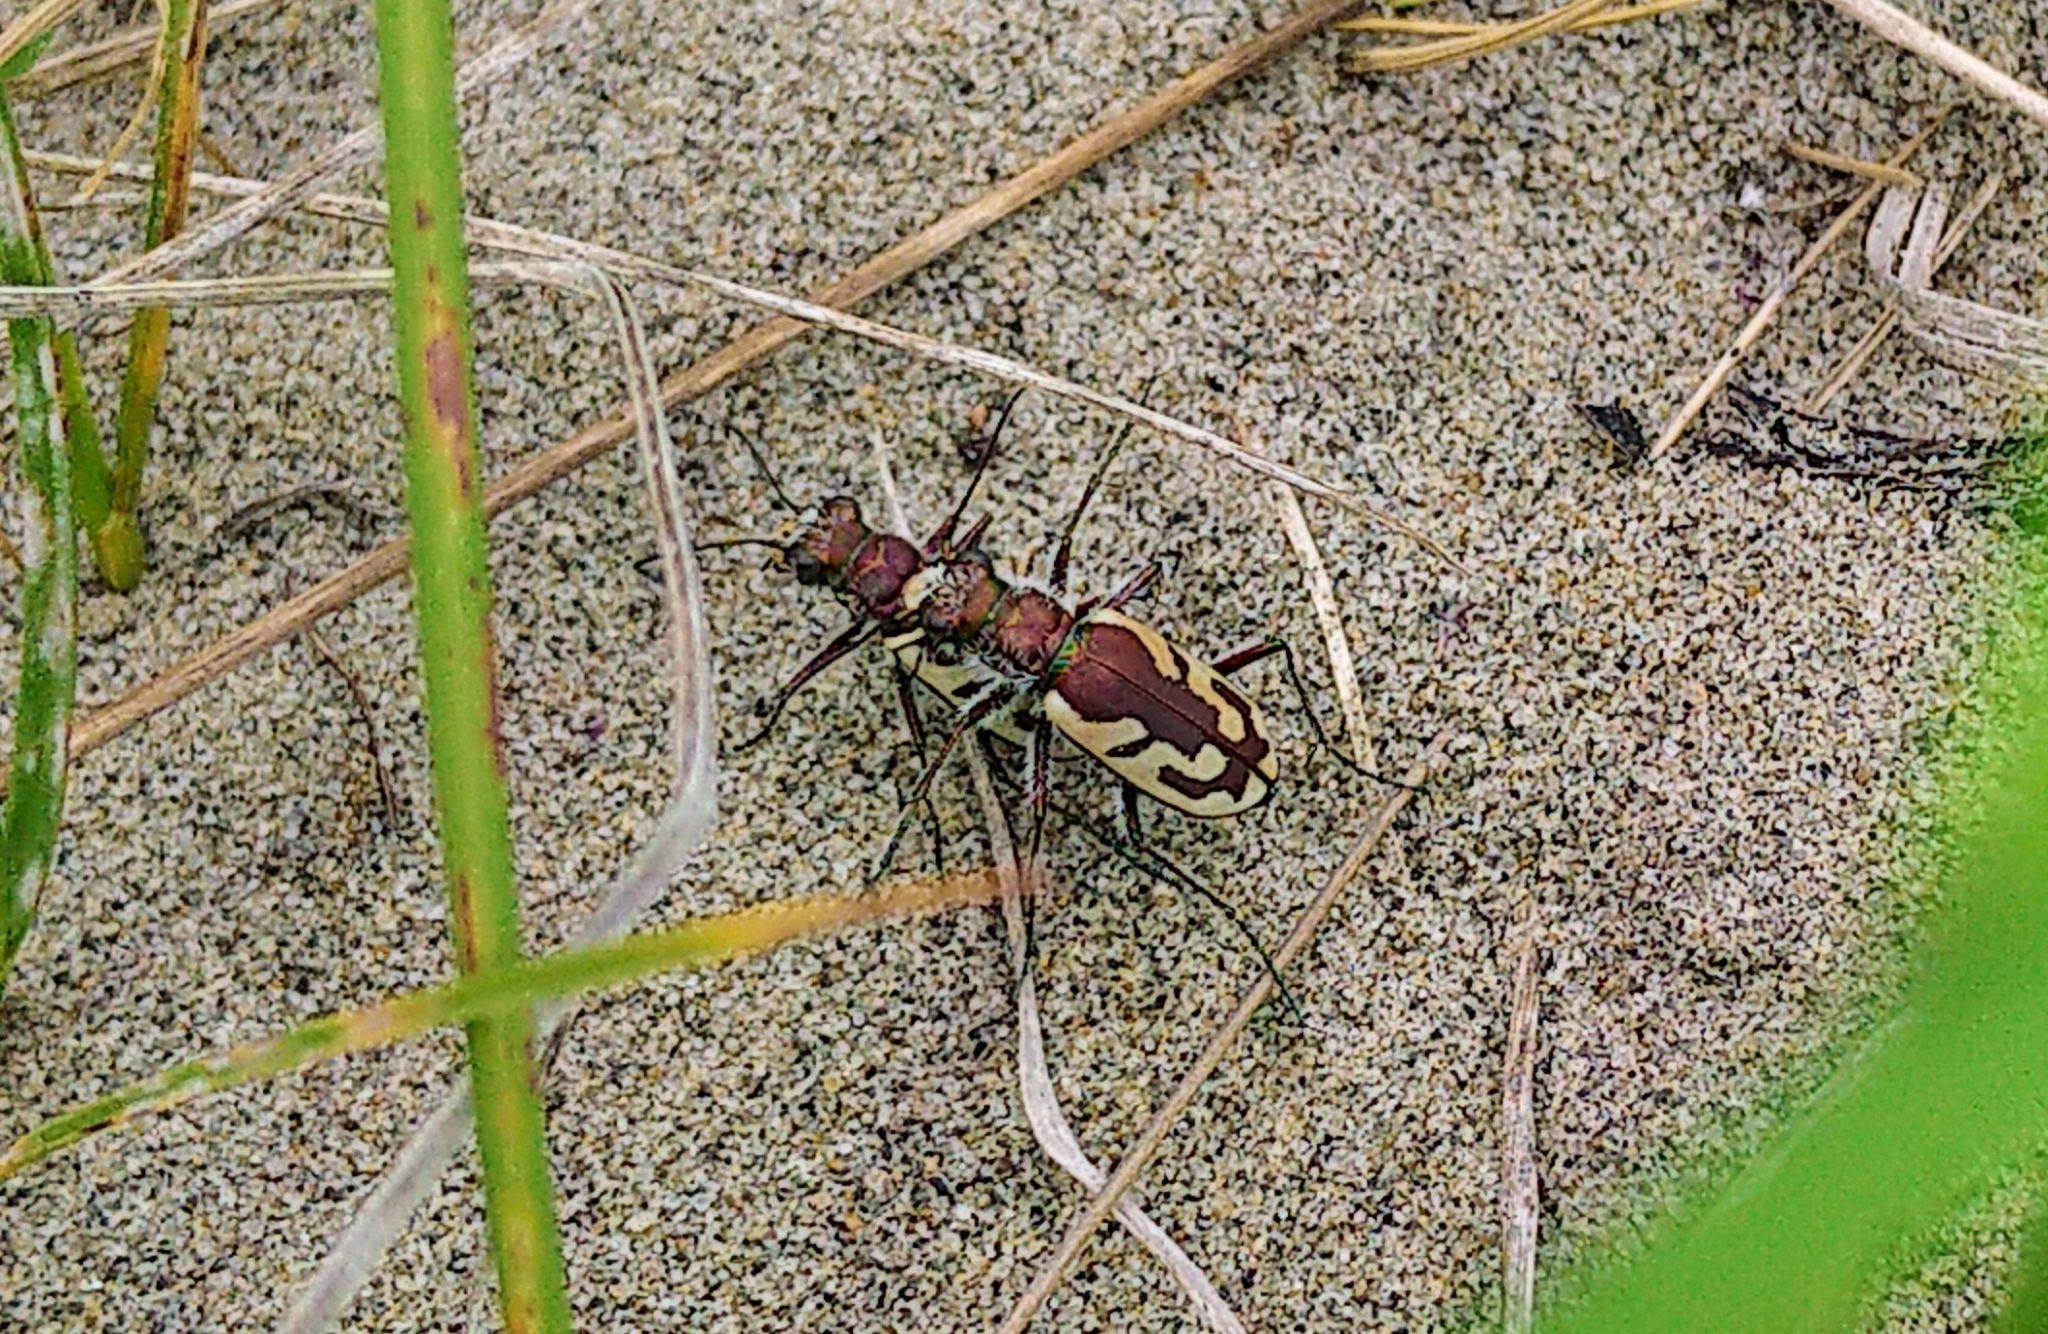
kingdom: Animalia
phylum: Arthropoda
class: Insecta
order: Coleoptera
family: Carabidae
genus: Cicindela
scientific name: Cicindela lengi
